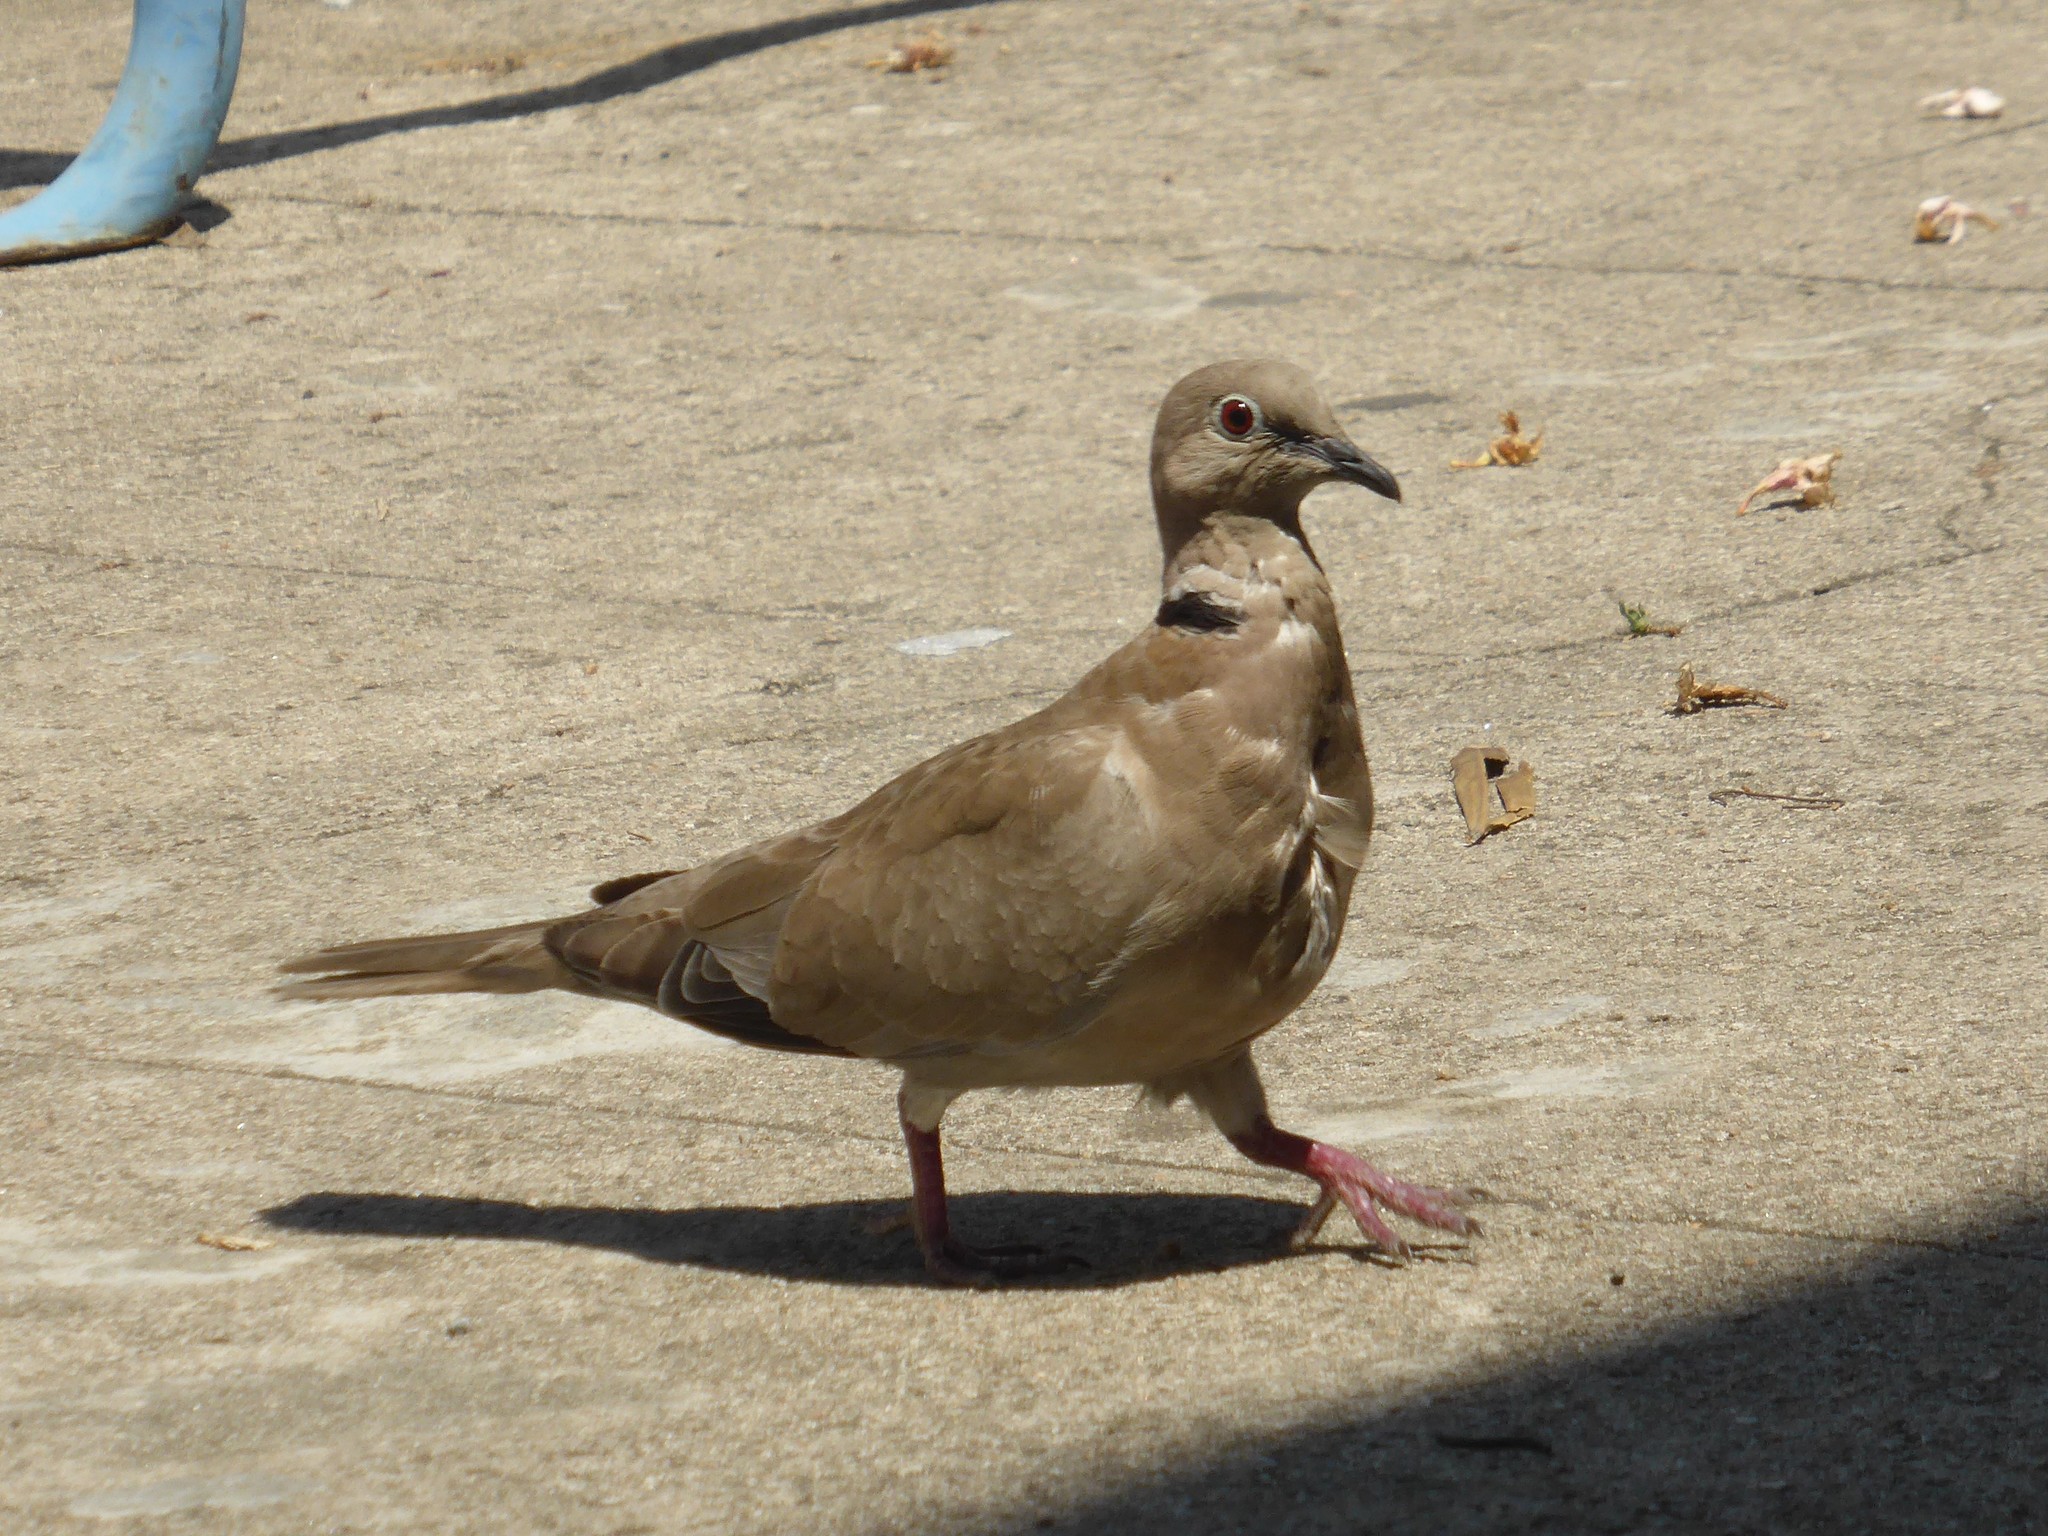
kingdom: Animalia
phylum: Chordata
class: Aves
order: Columbiformes
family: Columbidae
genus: Streptopelia
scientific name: Streptopelia decaocto
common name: Eurasian collared dove
